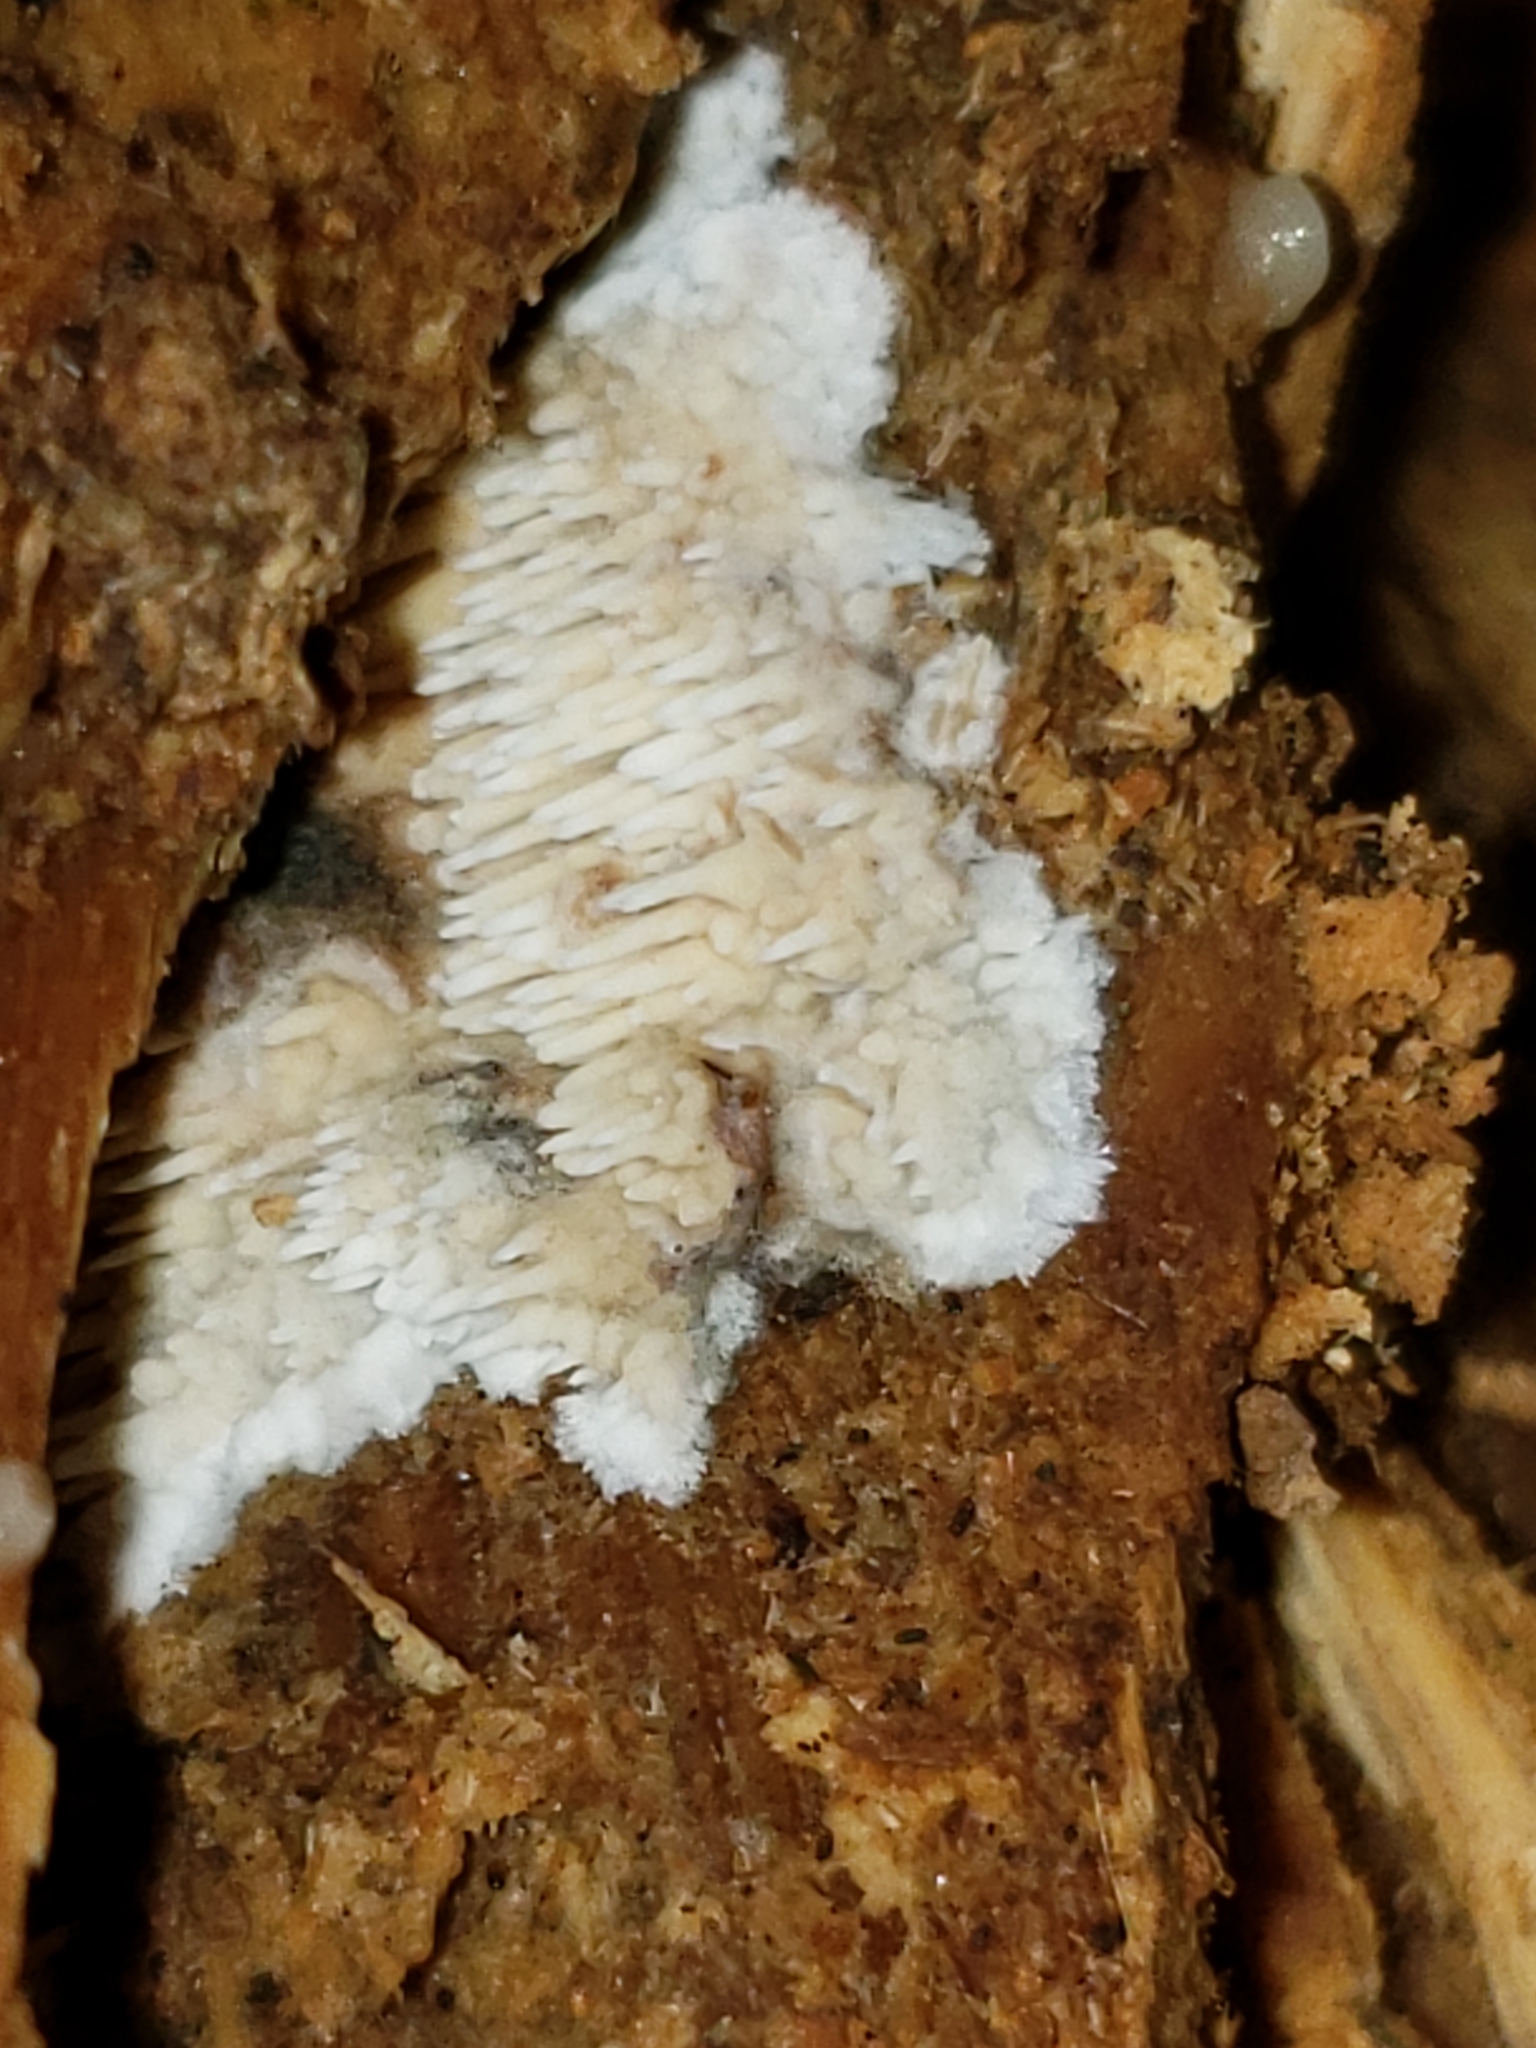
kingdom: Fungi
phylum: Basidiomycota
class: Agaricomycetes
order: Agaricales
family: Radulomycetaceae
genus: Radulomyces
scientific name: Radulomyces copelandii
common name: Asian beauty
